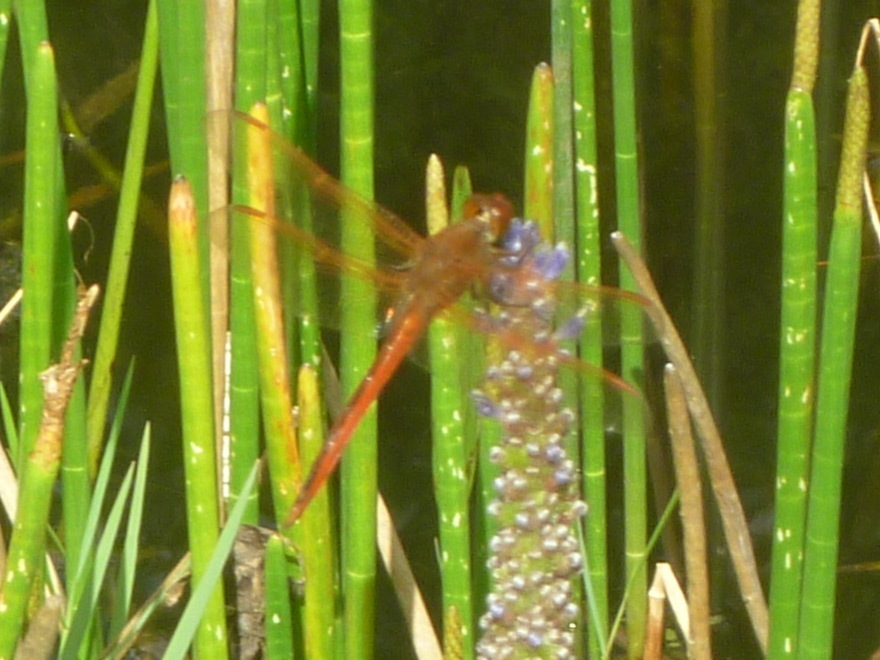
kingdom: Animalia
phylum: Arthropoda
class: Insecta
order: Odonata
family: Libellulidae
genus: Libellula
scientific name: Libellula needhami
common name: Needham's skimmer
